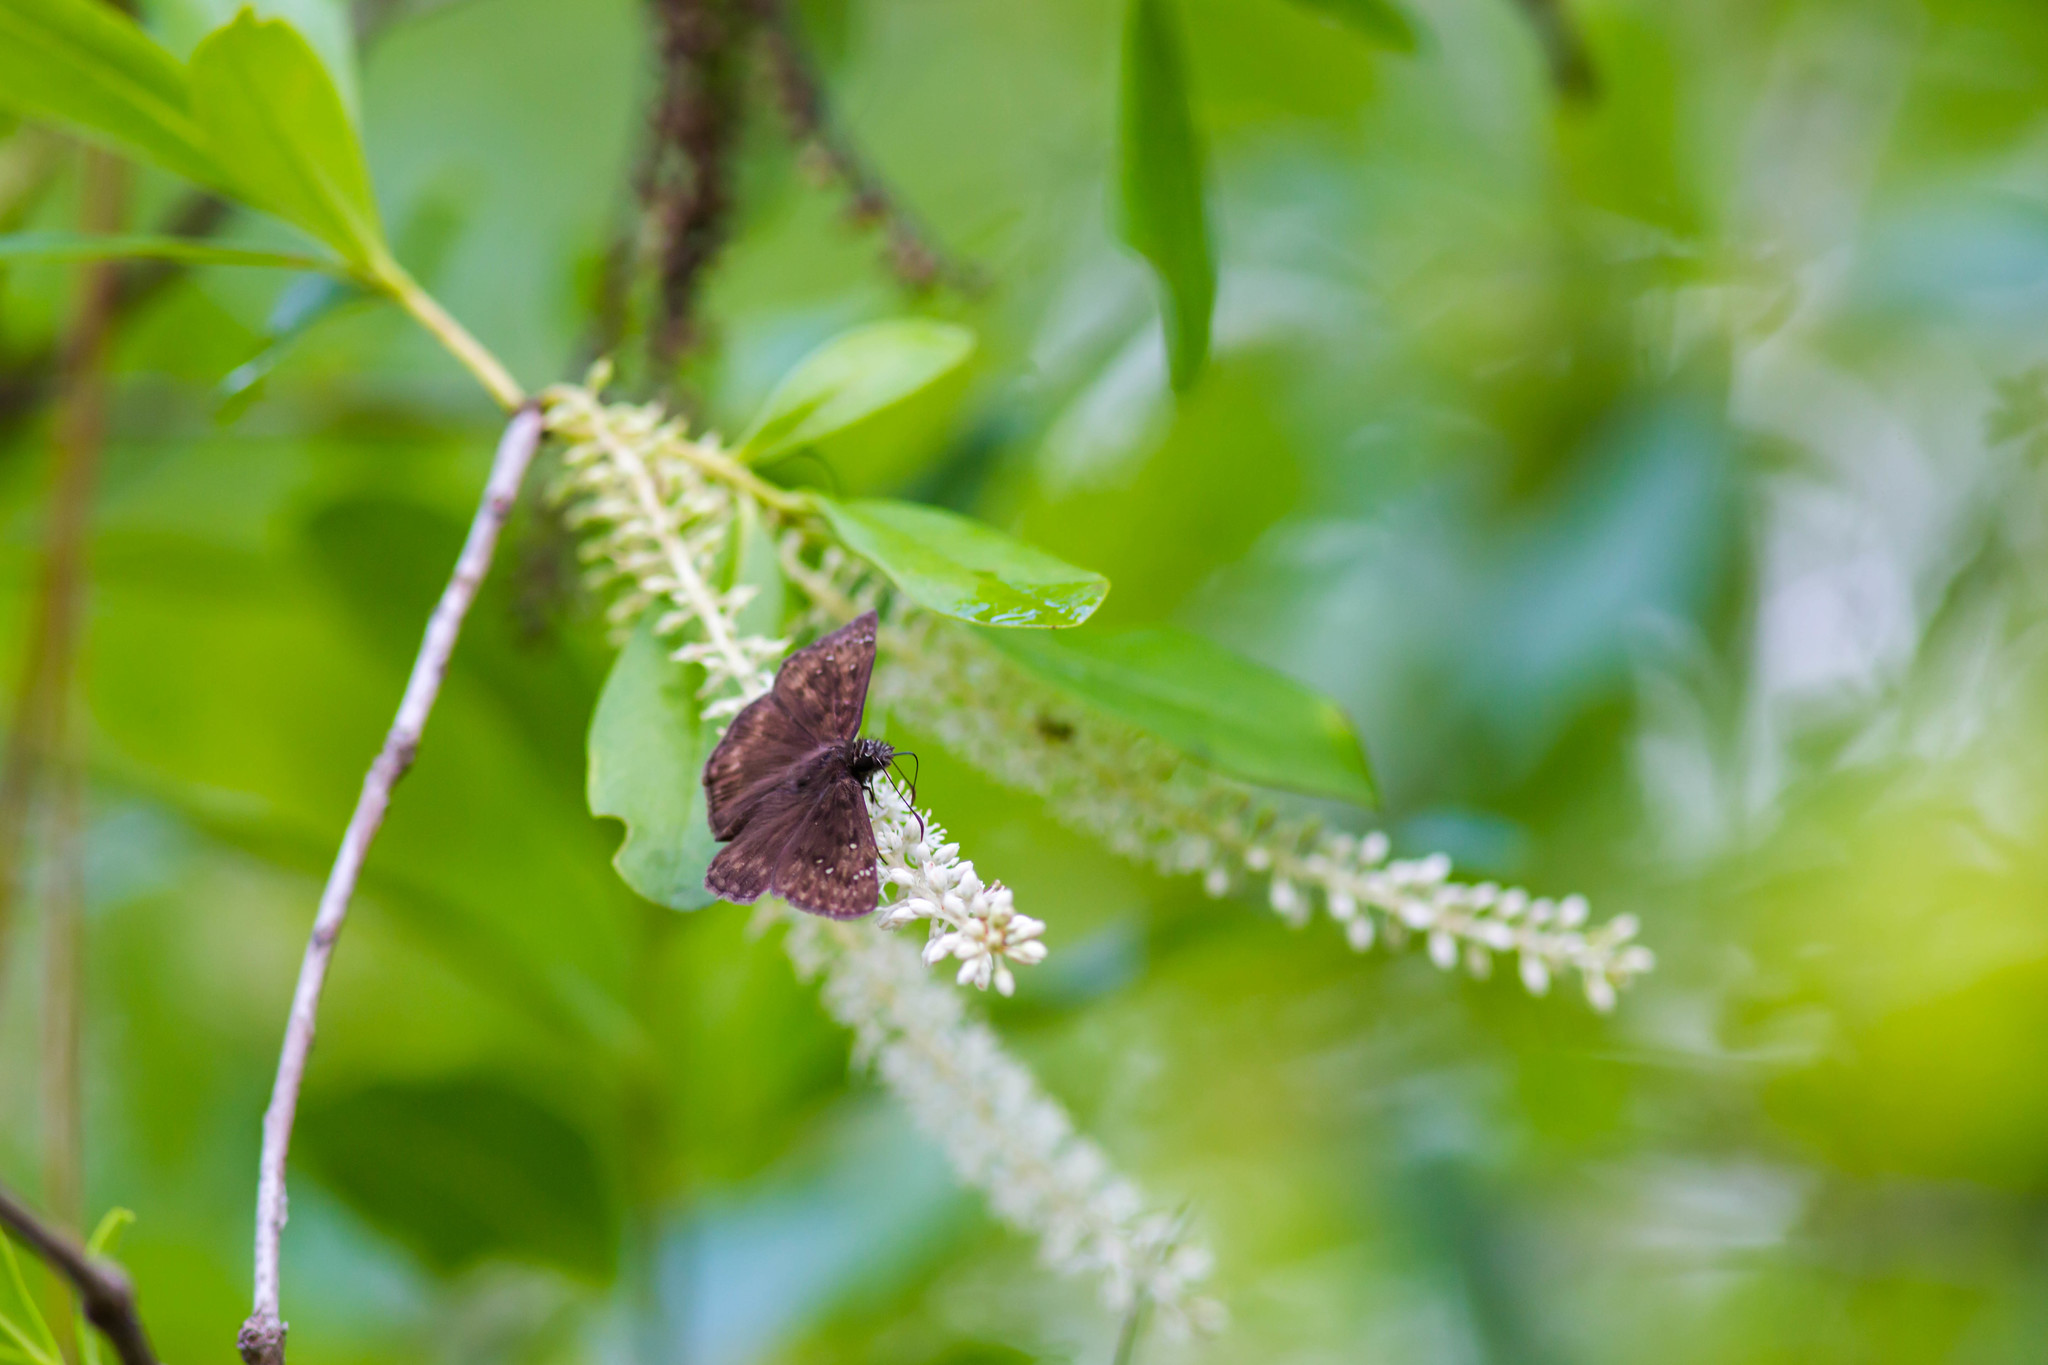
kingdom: Animalia
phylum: Arthropoda
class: Insecta
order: Lepidoptera
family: Hesperiidae
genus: Erynnis
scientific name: Erynnis horatius
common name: Horace's duskywing
